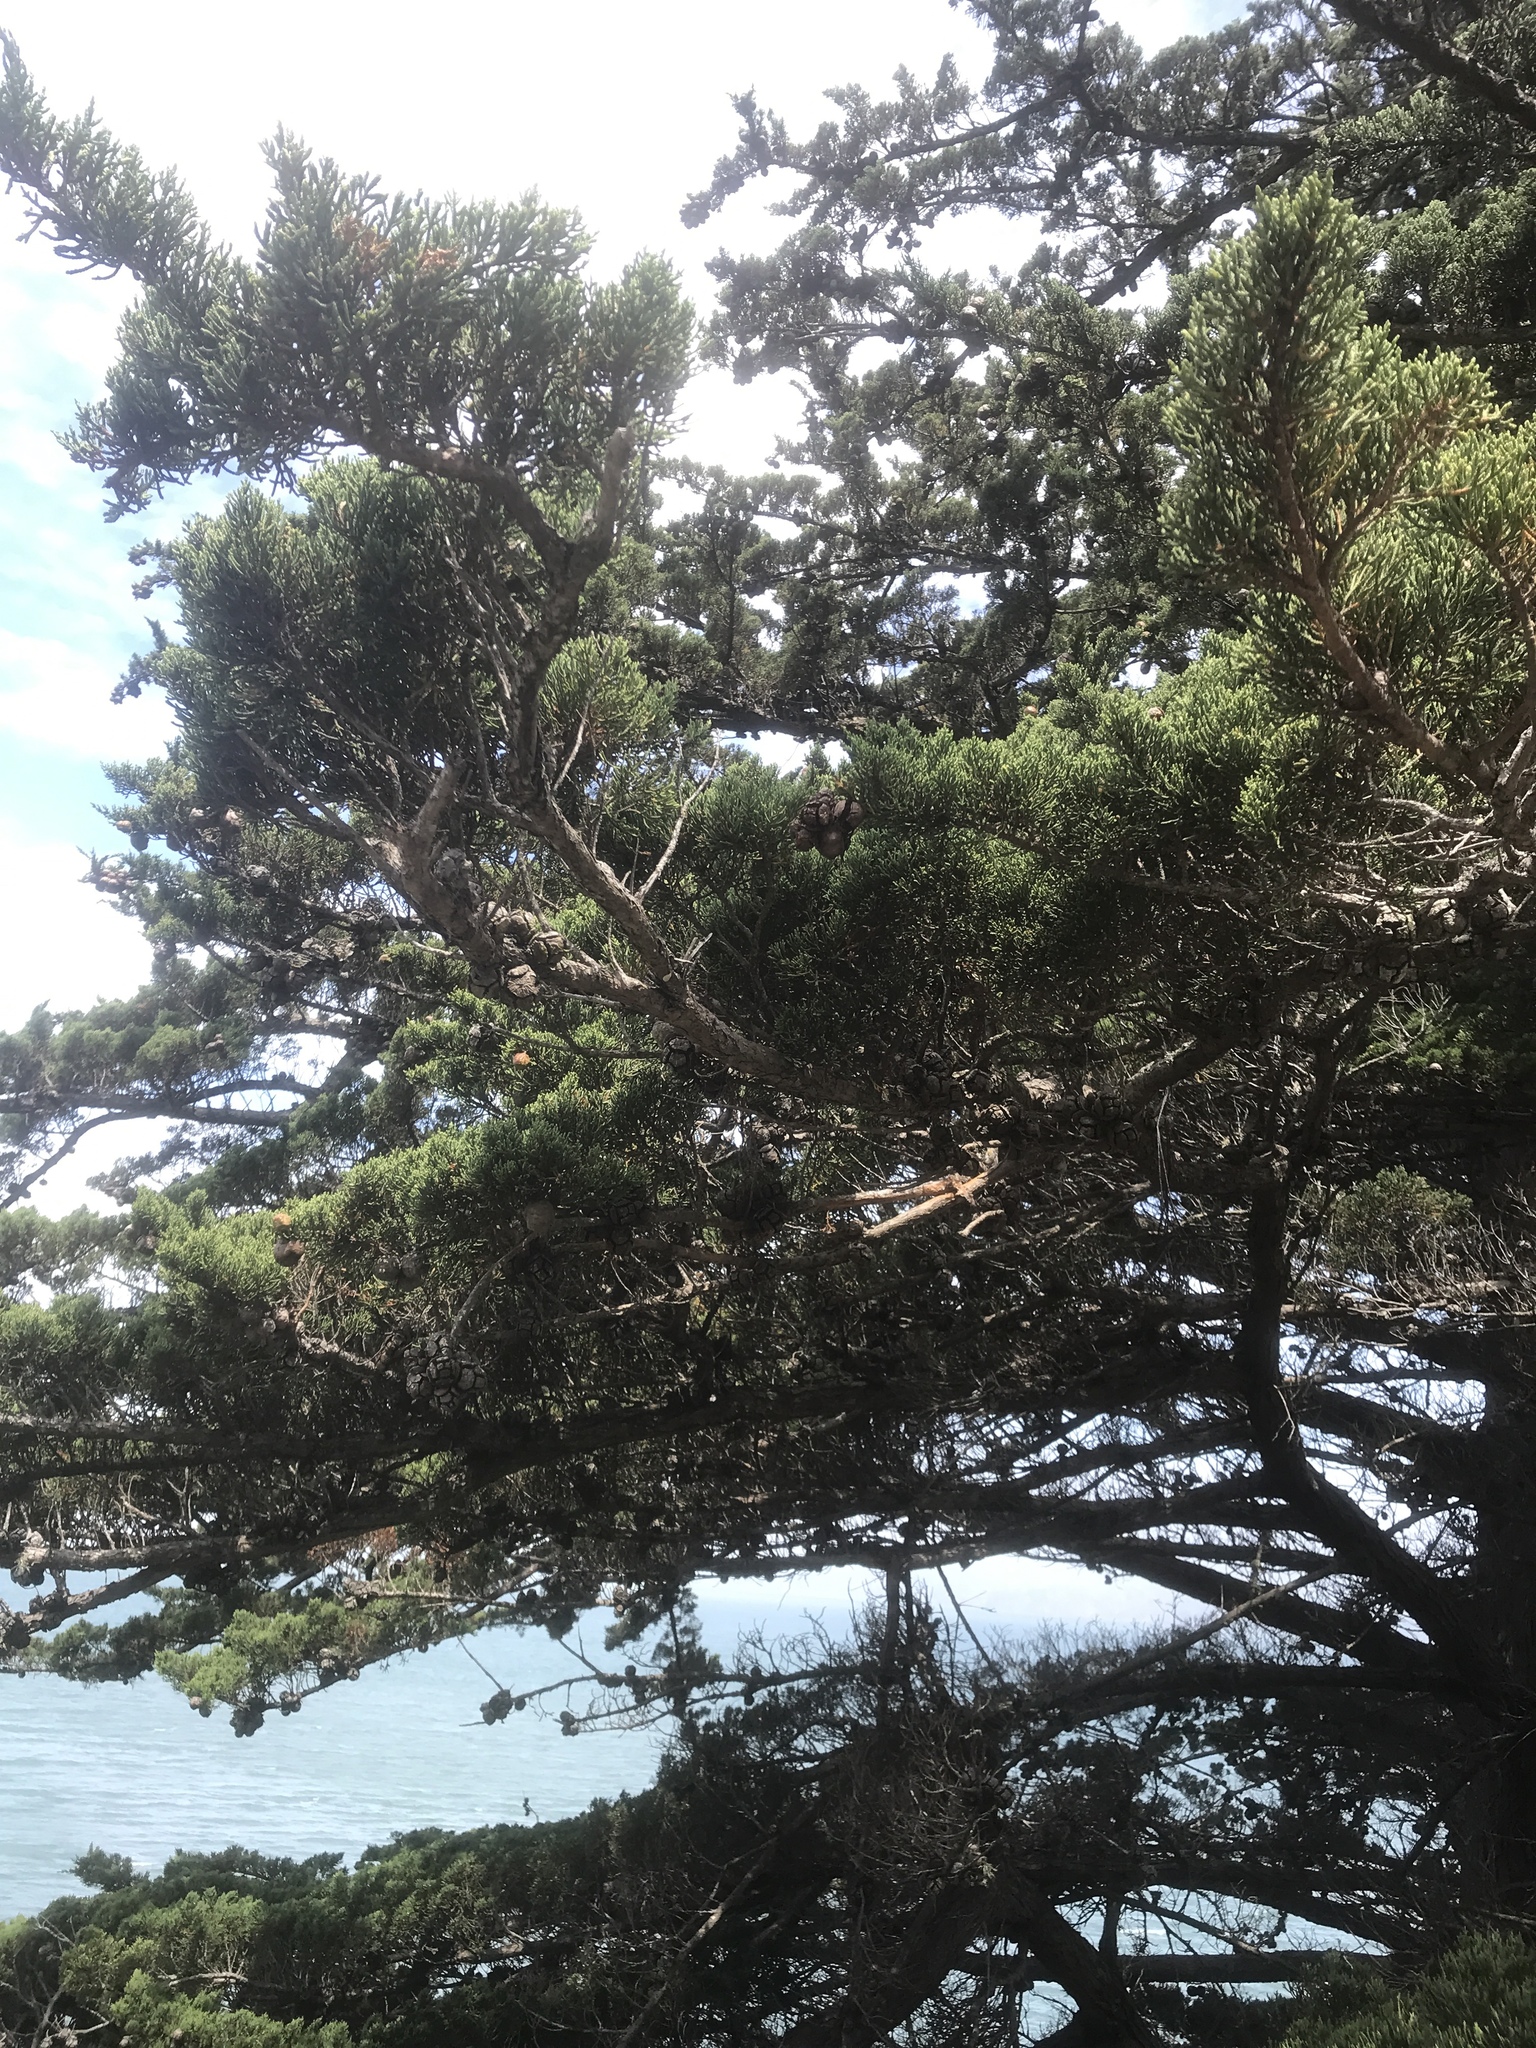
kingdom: Plantae
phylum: Tracheophyta
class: Pinopsida
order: Pinales
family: Cupressaceae
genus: Cupressus
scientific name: Cupressus macrocarpa
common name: Monterey cypress
